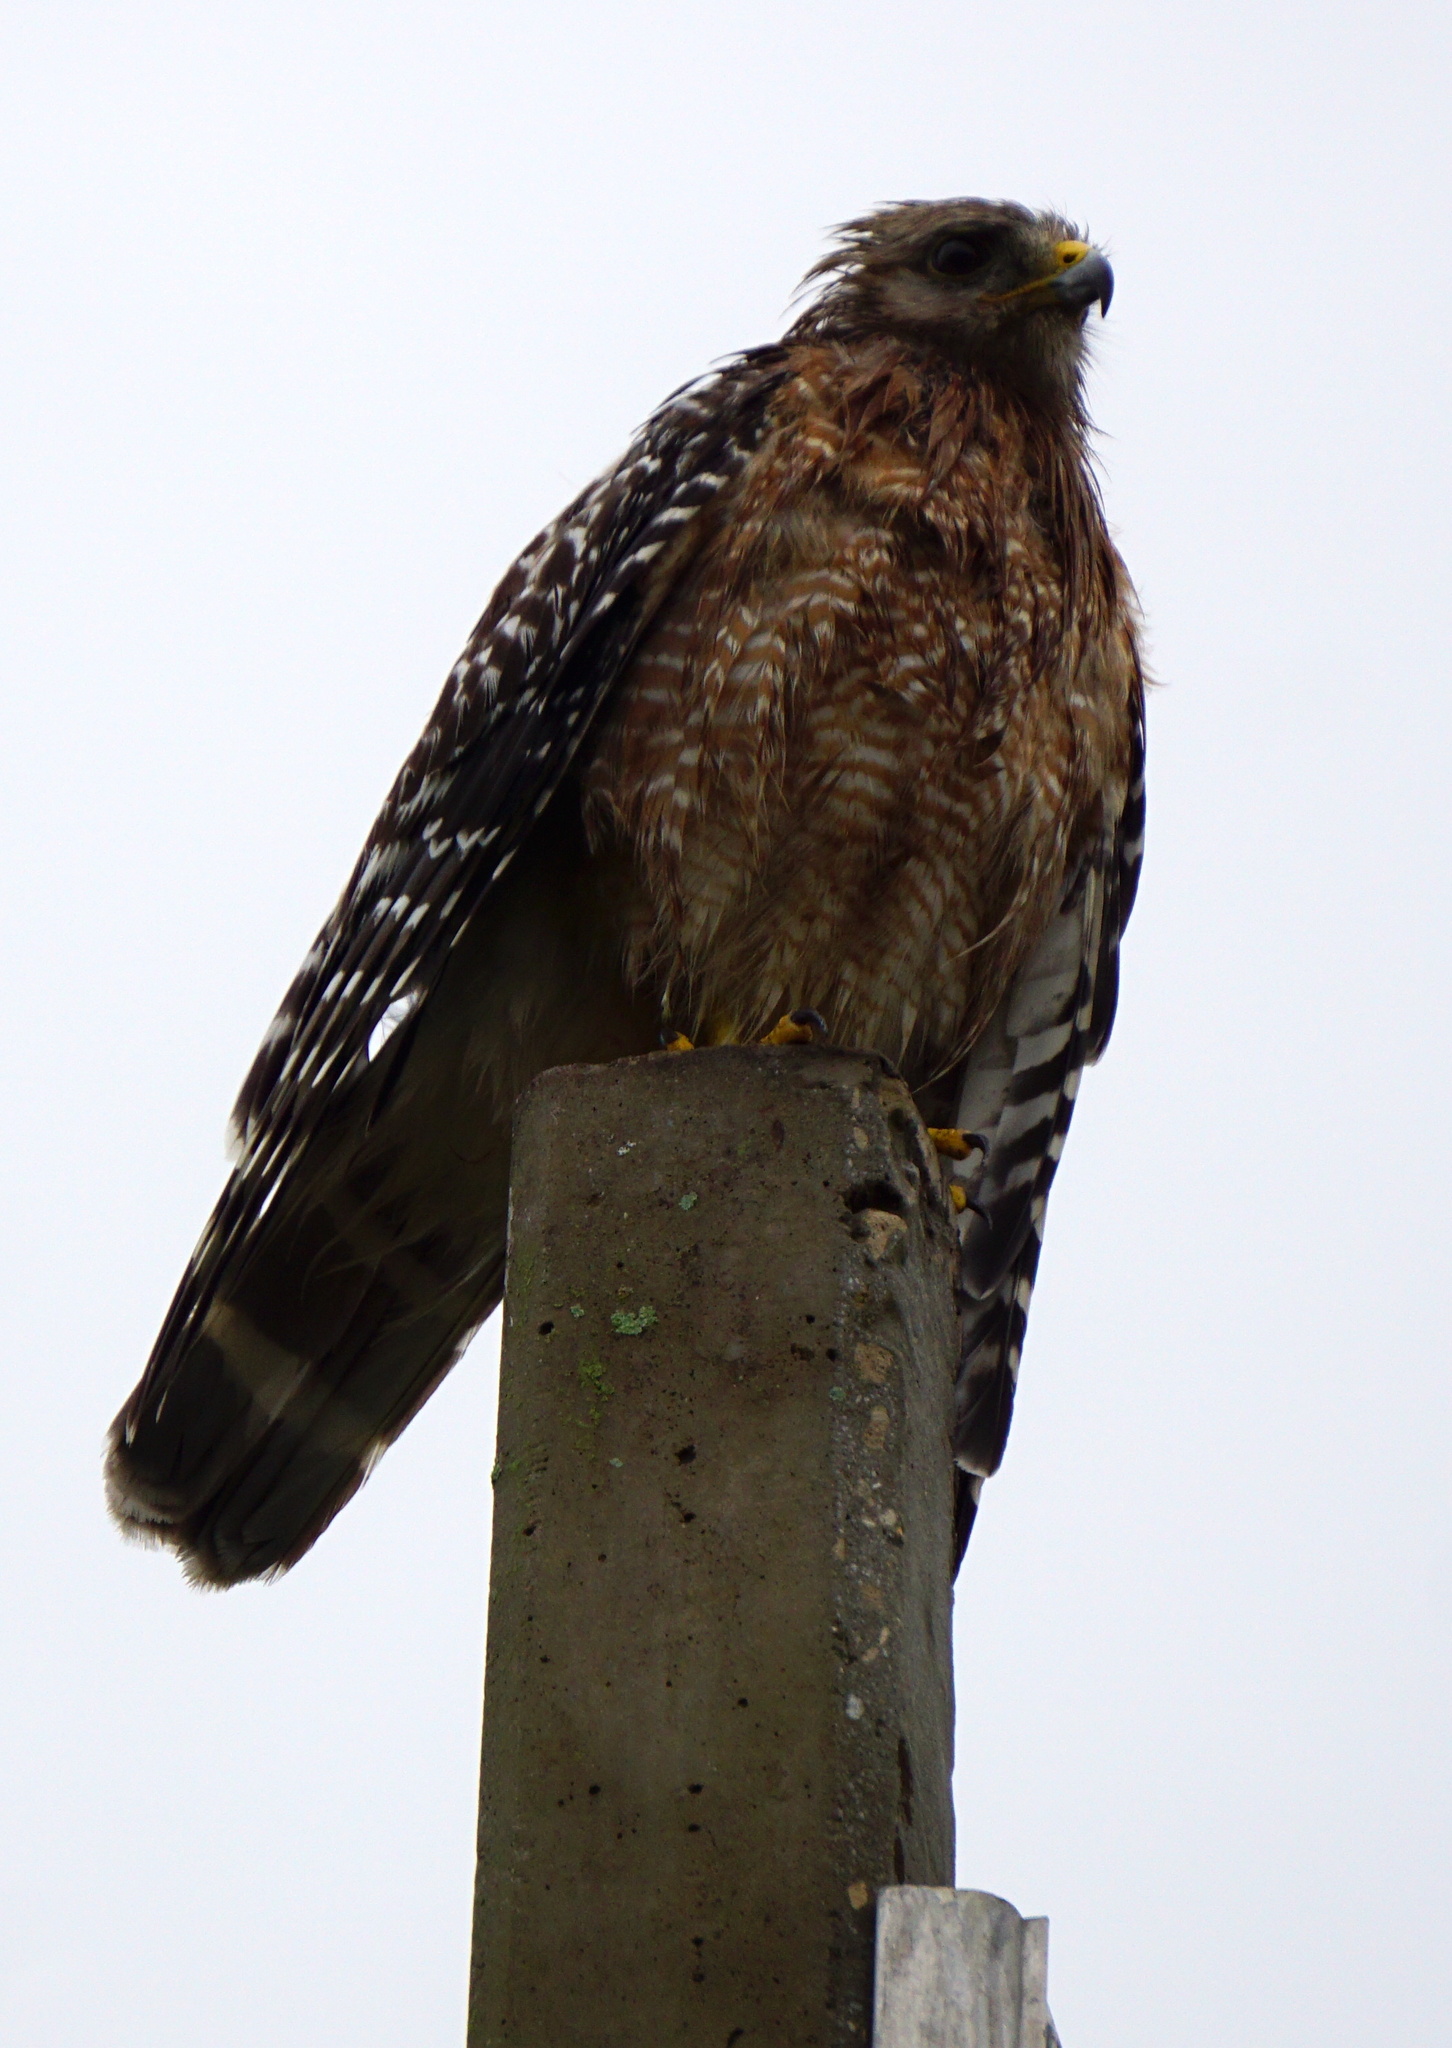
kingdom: Animalia
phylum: Chordata
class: Aves
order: Accipitriformes
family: Accipitridae
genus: Buteo
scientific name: Buteo lineatus
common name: Red-shouldered hawk
